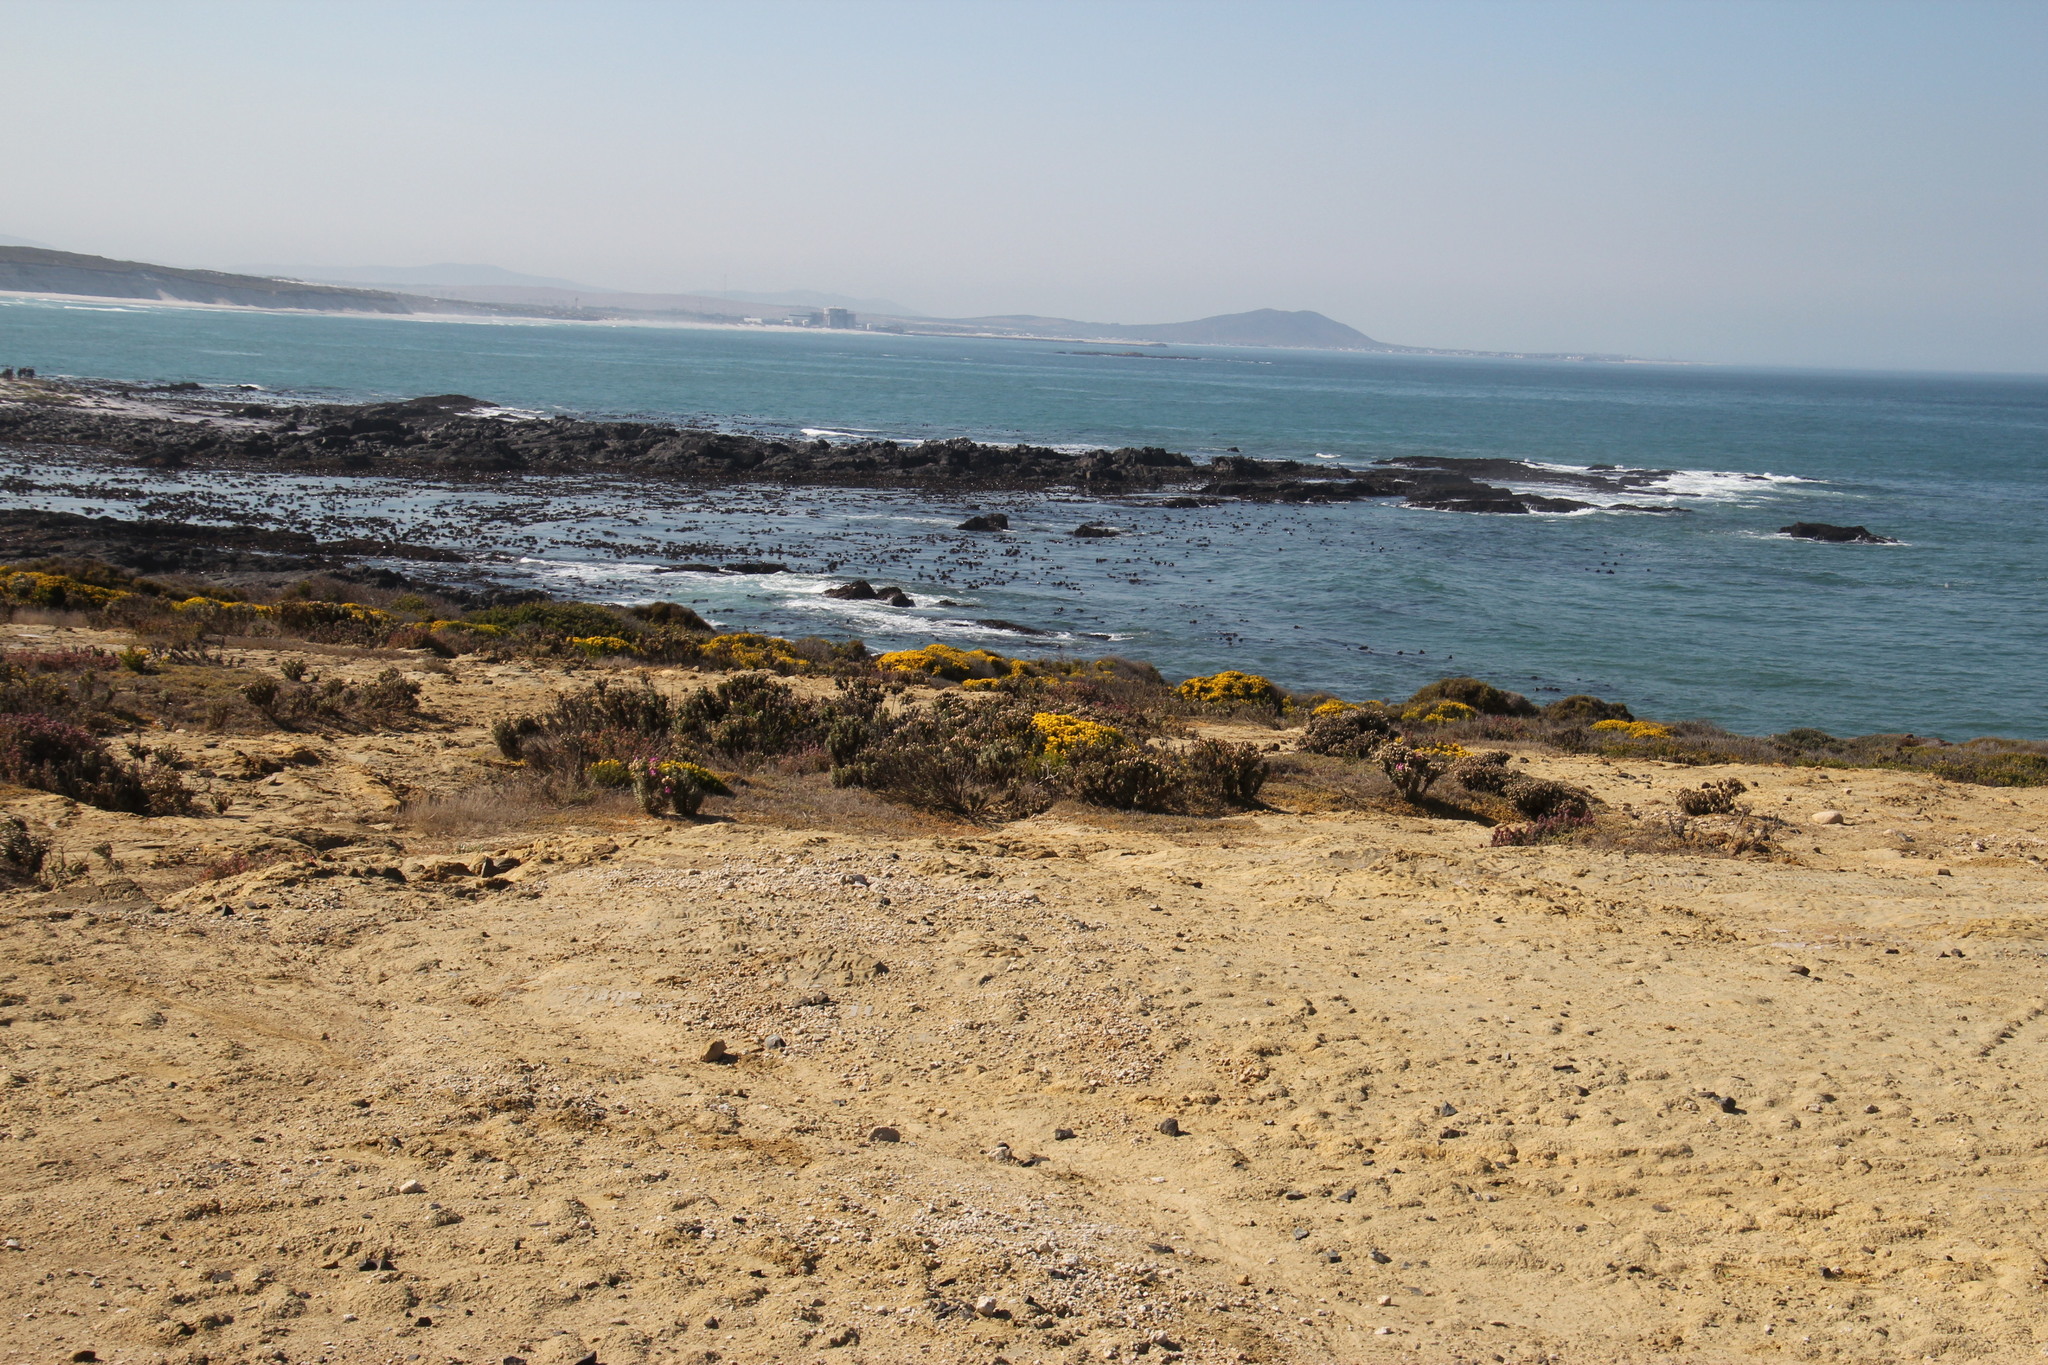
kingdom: Plantae
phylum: Tracheophyta
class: Magnoliopsida
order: Gentianales
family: Gentianaceae
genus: Orphium
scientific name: Orphium frutescens
